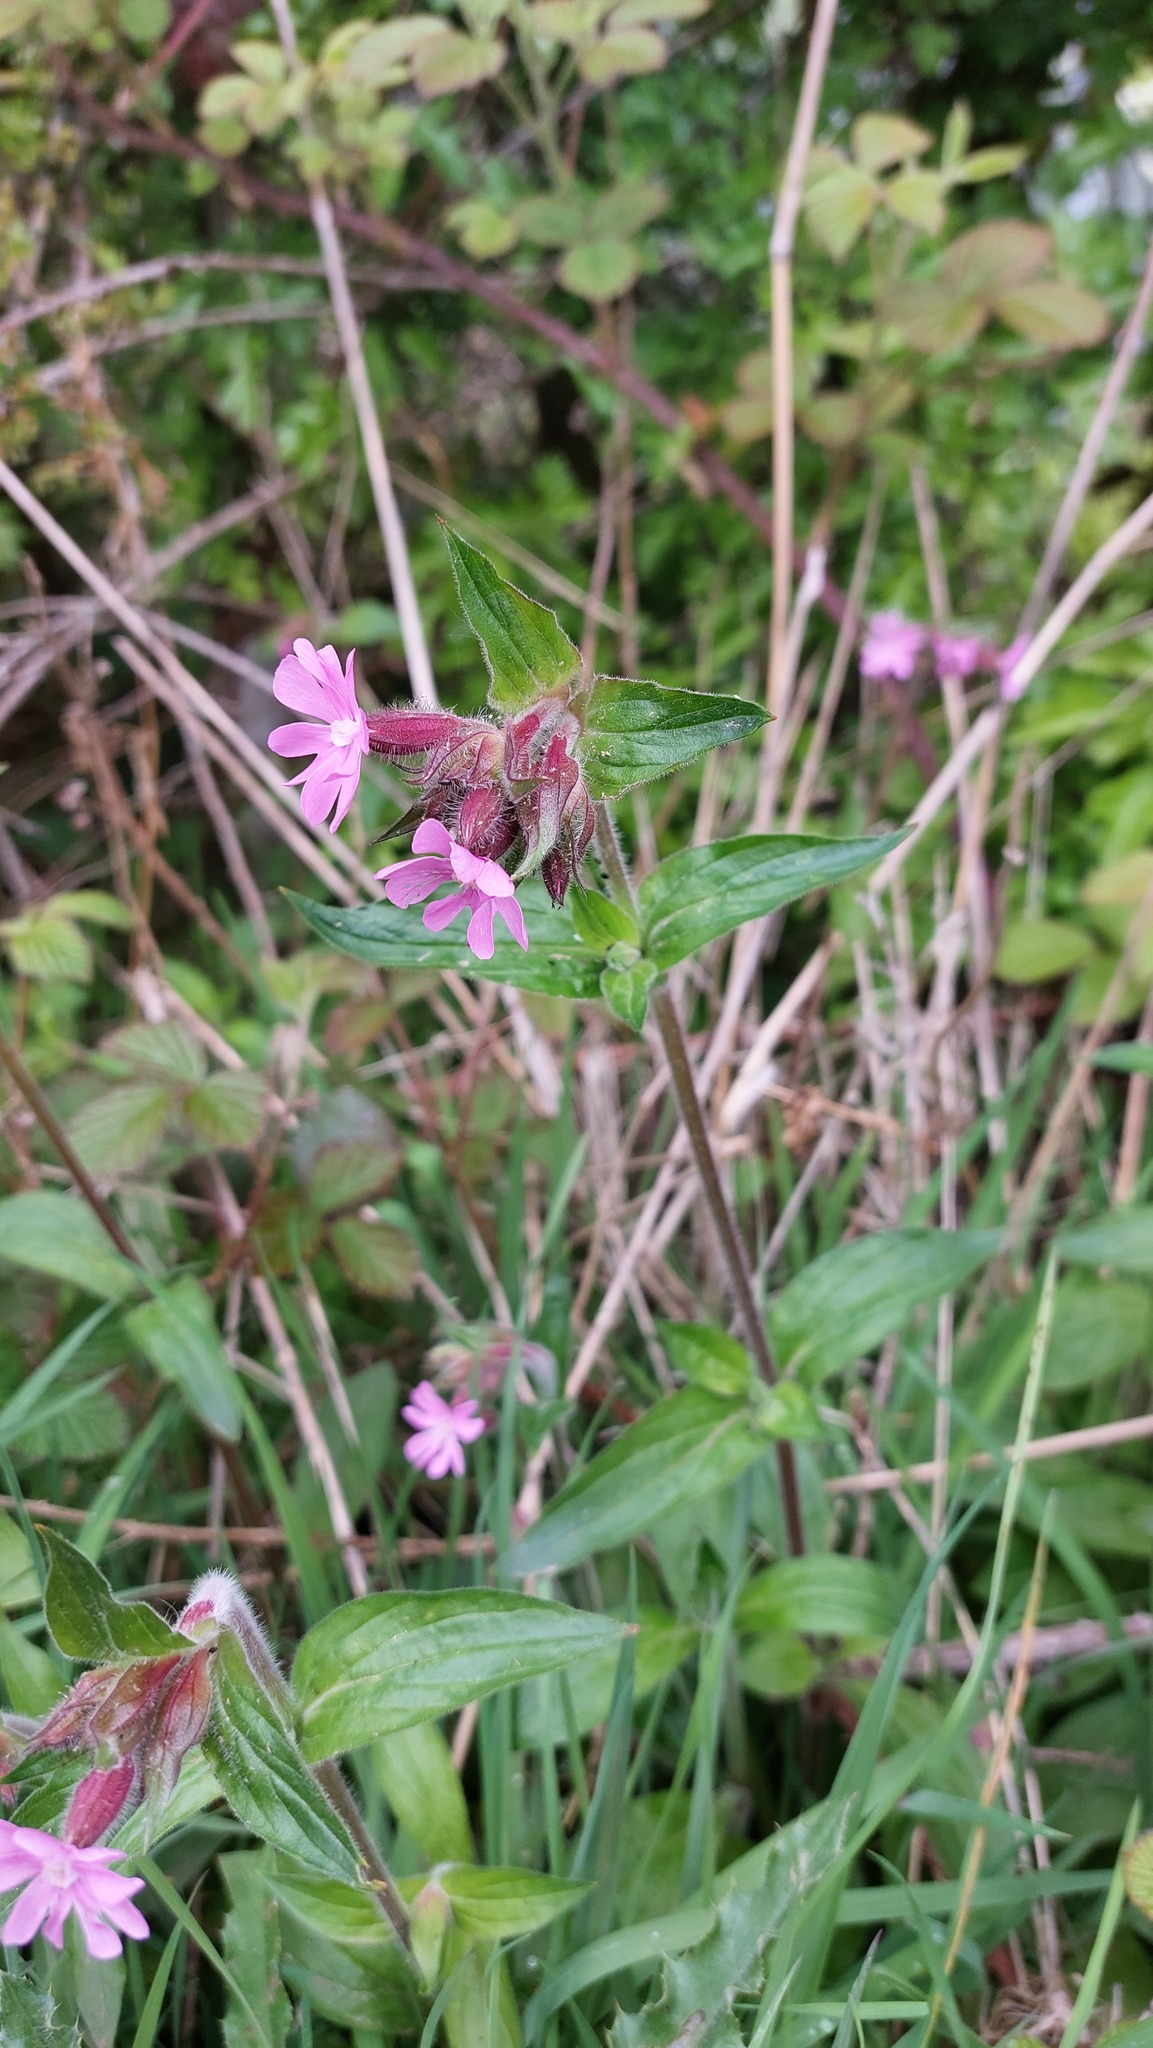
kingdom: Plantae
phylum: Tracheophyta
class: Magnoliopsida
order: Caryophyllales
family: Caryophyllaceae
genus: Silene
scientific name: Silene dioica
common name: Red campion
